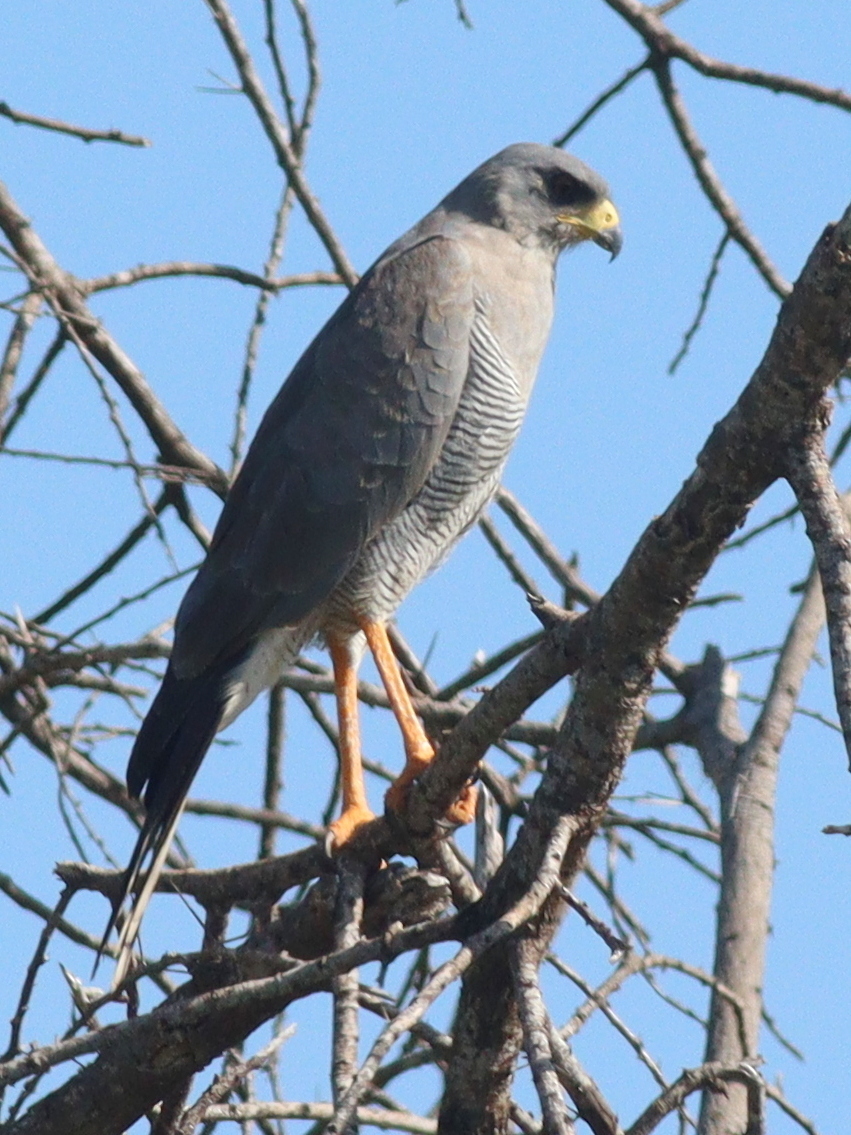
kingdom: Animalia
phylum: Chordata
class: Aves
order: Accipitriformes
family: Accipitridae
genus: Melierax
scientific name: Melierax poliopterus
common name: Eastern chanting goshawk
